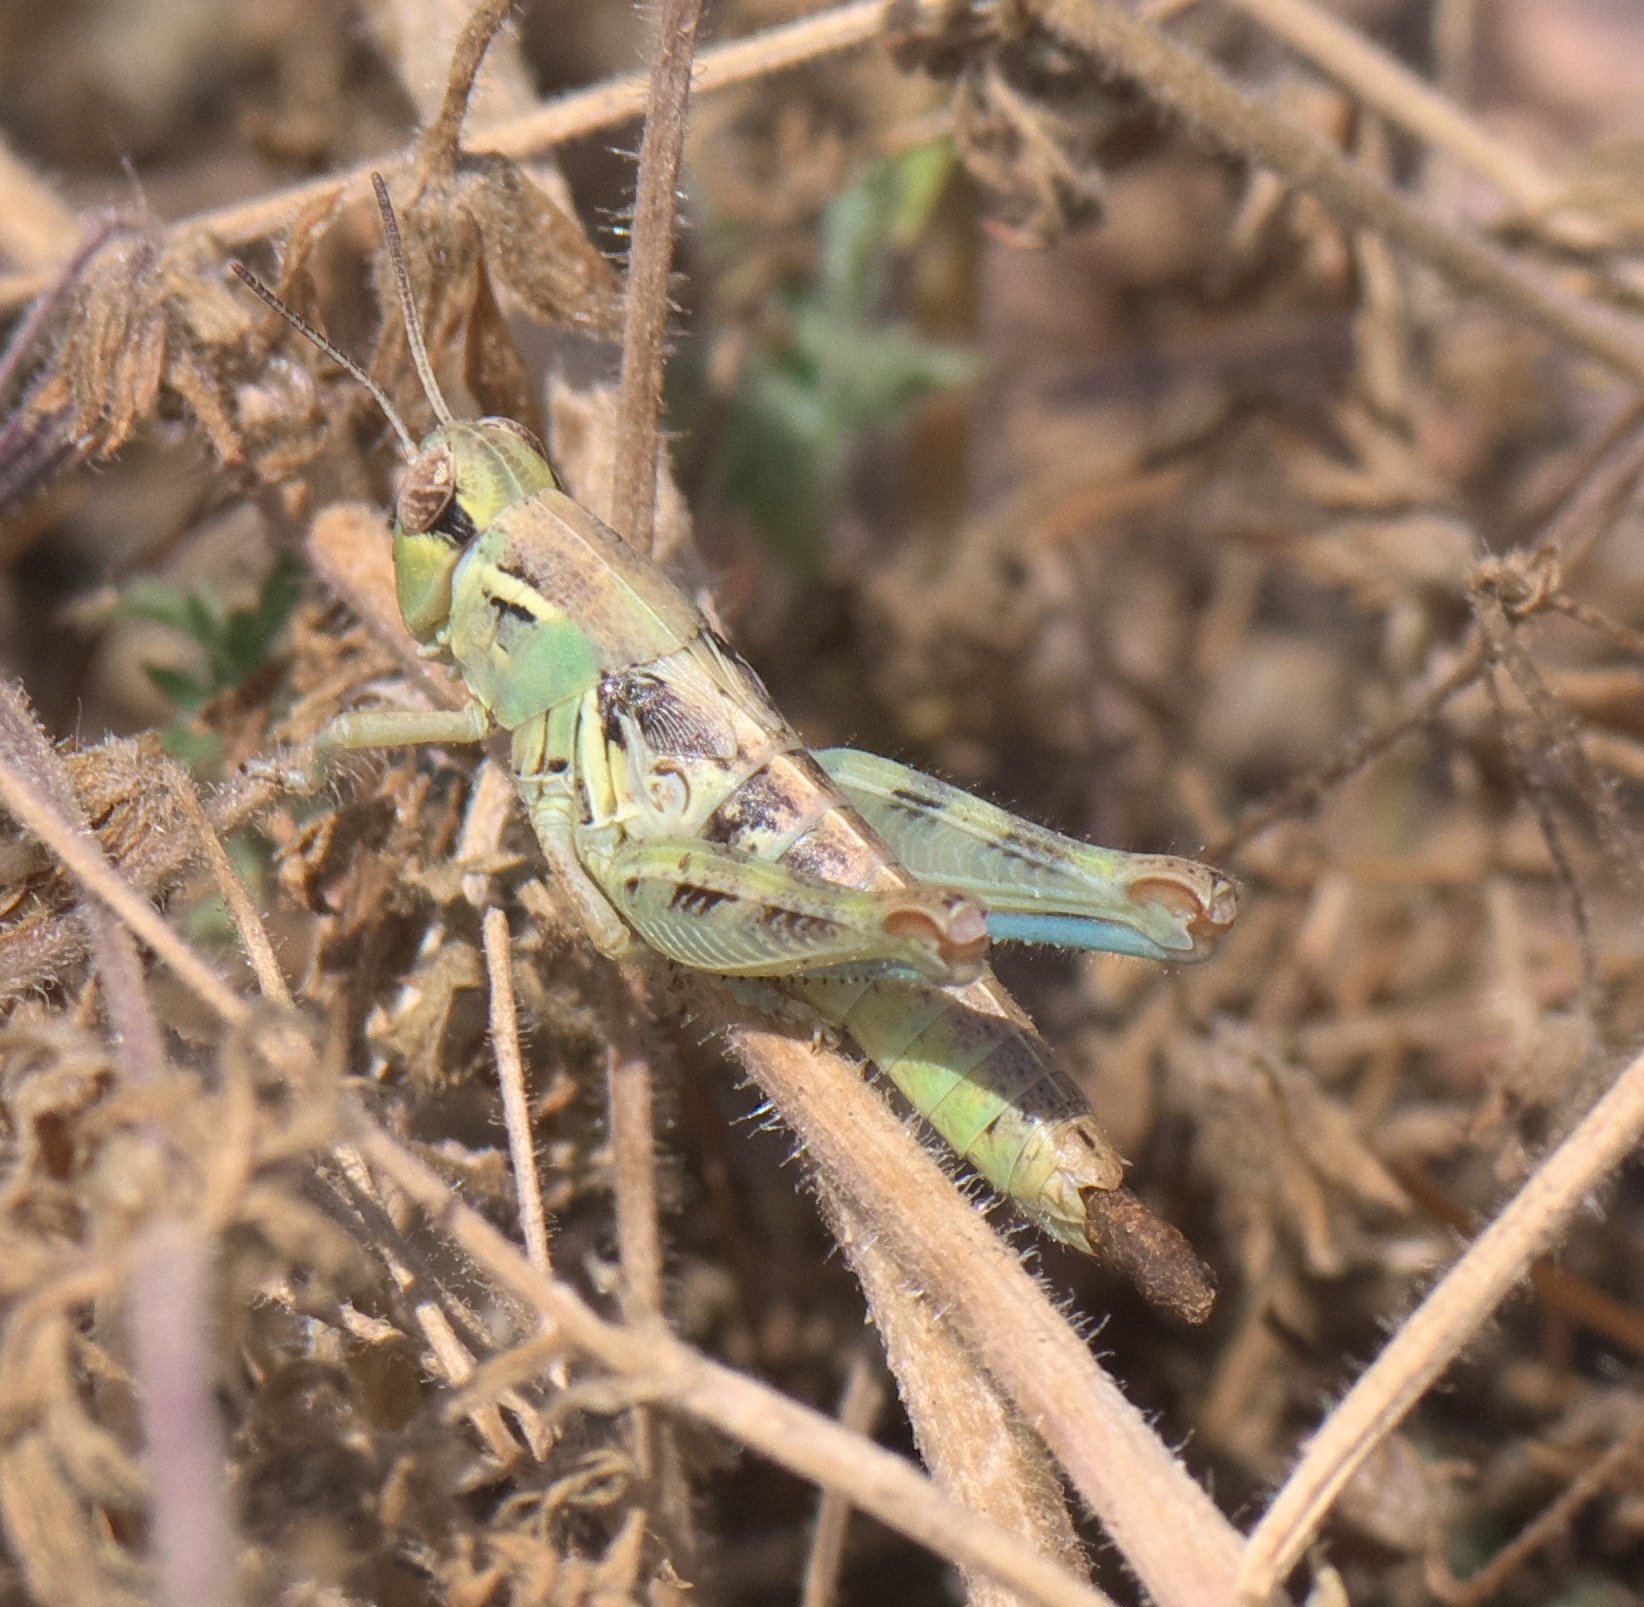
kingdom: Animalia
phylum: Arthropoda
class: Insecta
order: Orthoptera
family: Acrididae
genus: Melanoplus
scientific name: Melanoplus lakinus
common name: Lakin grasshopper
